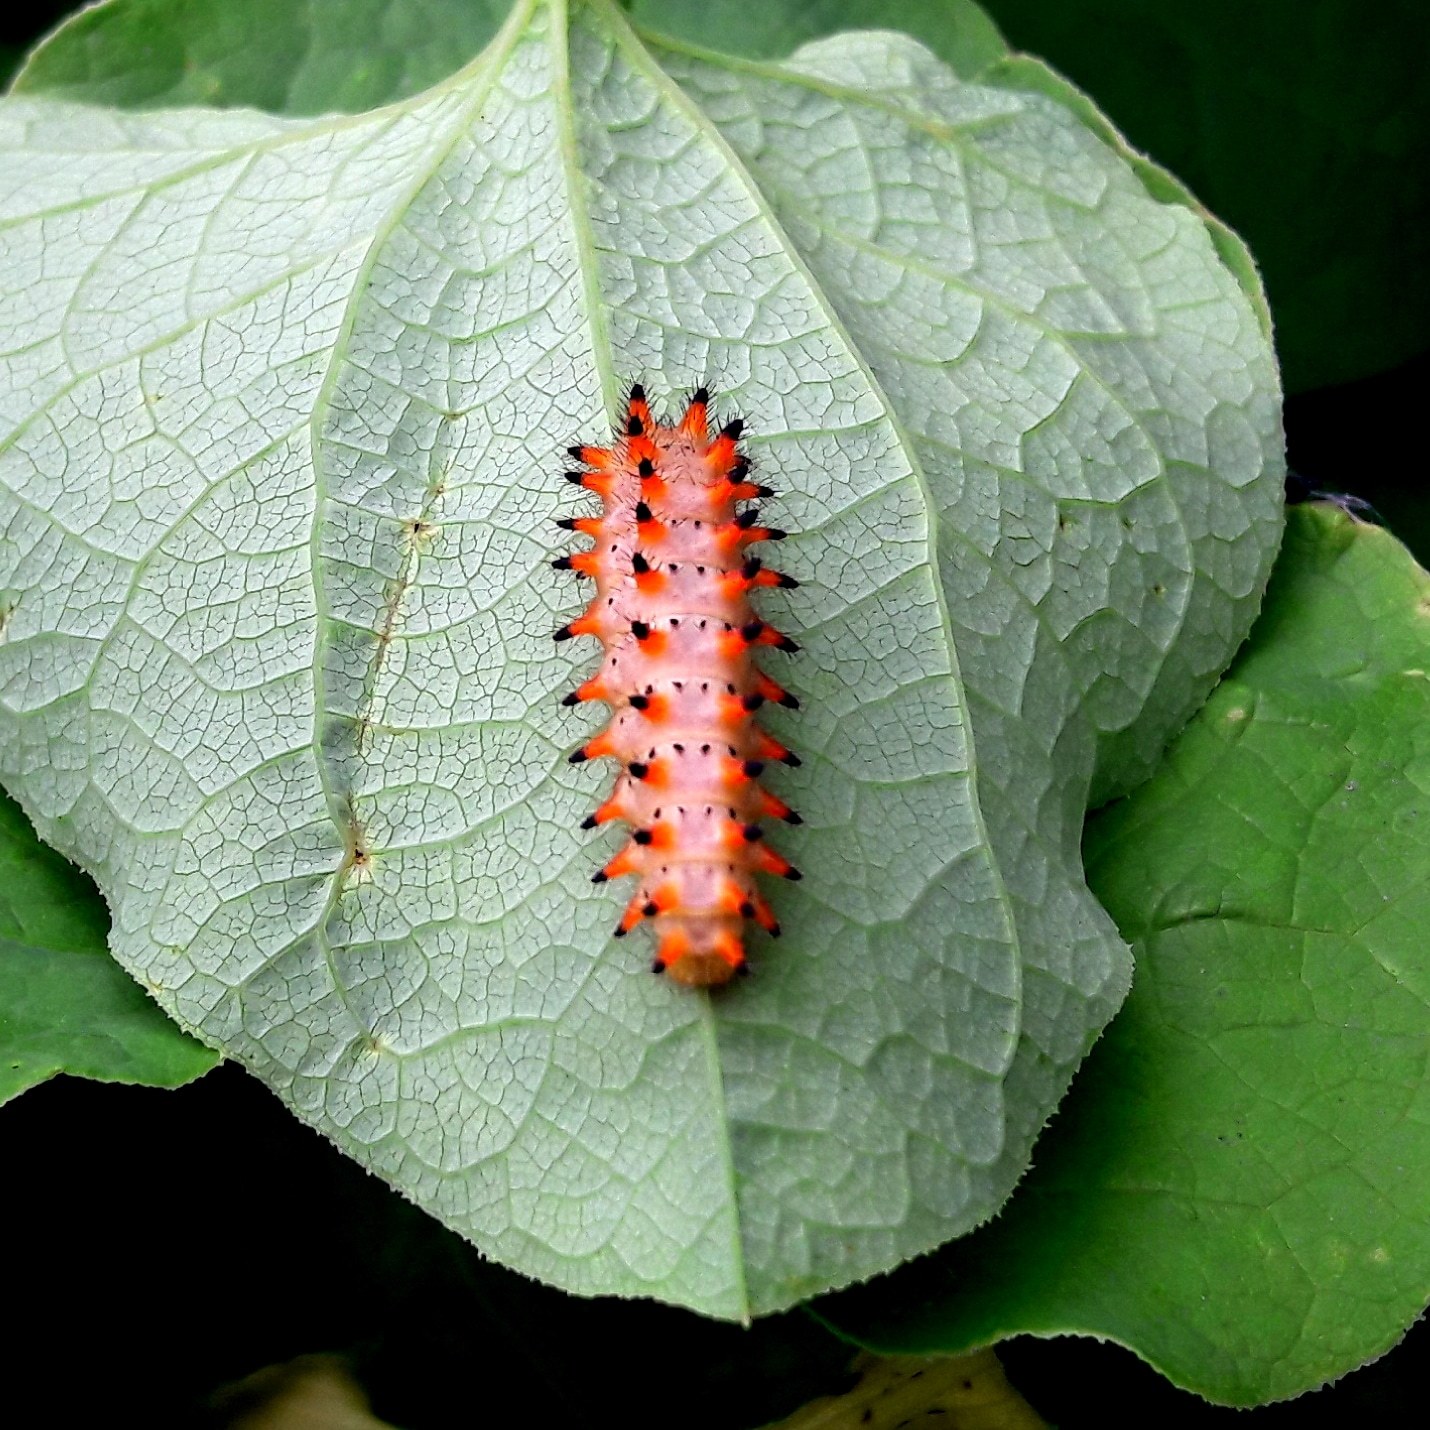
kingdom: Animalia
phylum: Arthropoda
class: Insecta
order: Lepidoptera
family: Papilionidae
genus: Zerynthia
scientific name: Zerynthia polyxena
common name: Southern festoon
